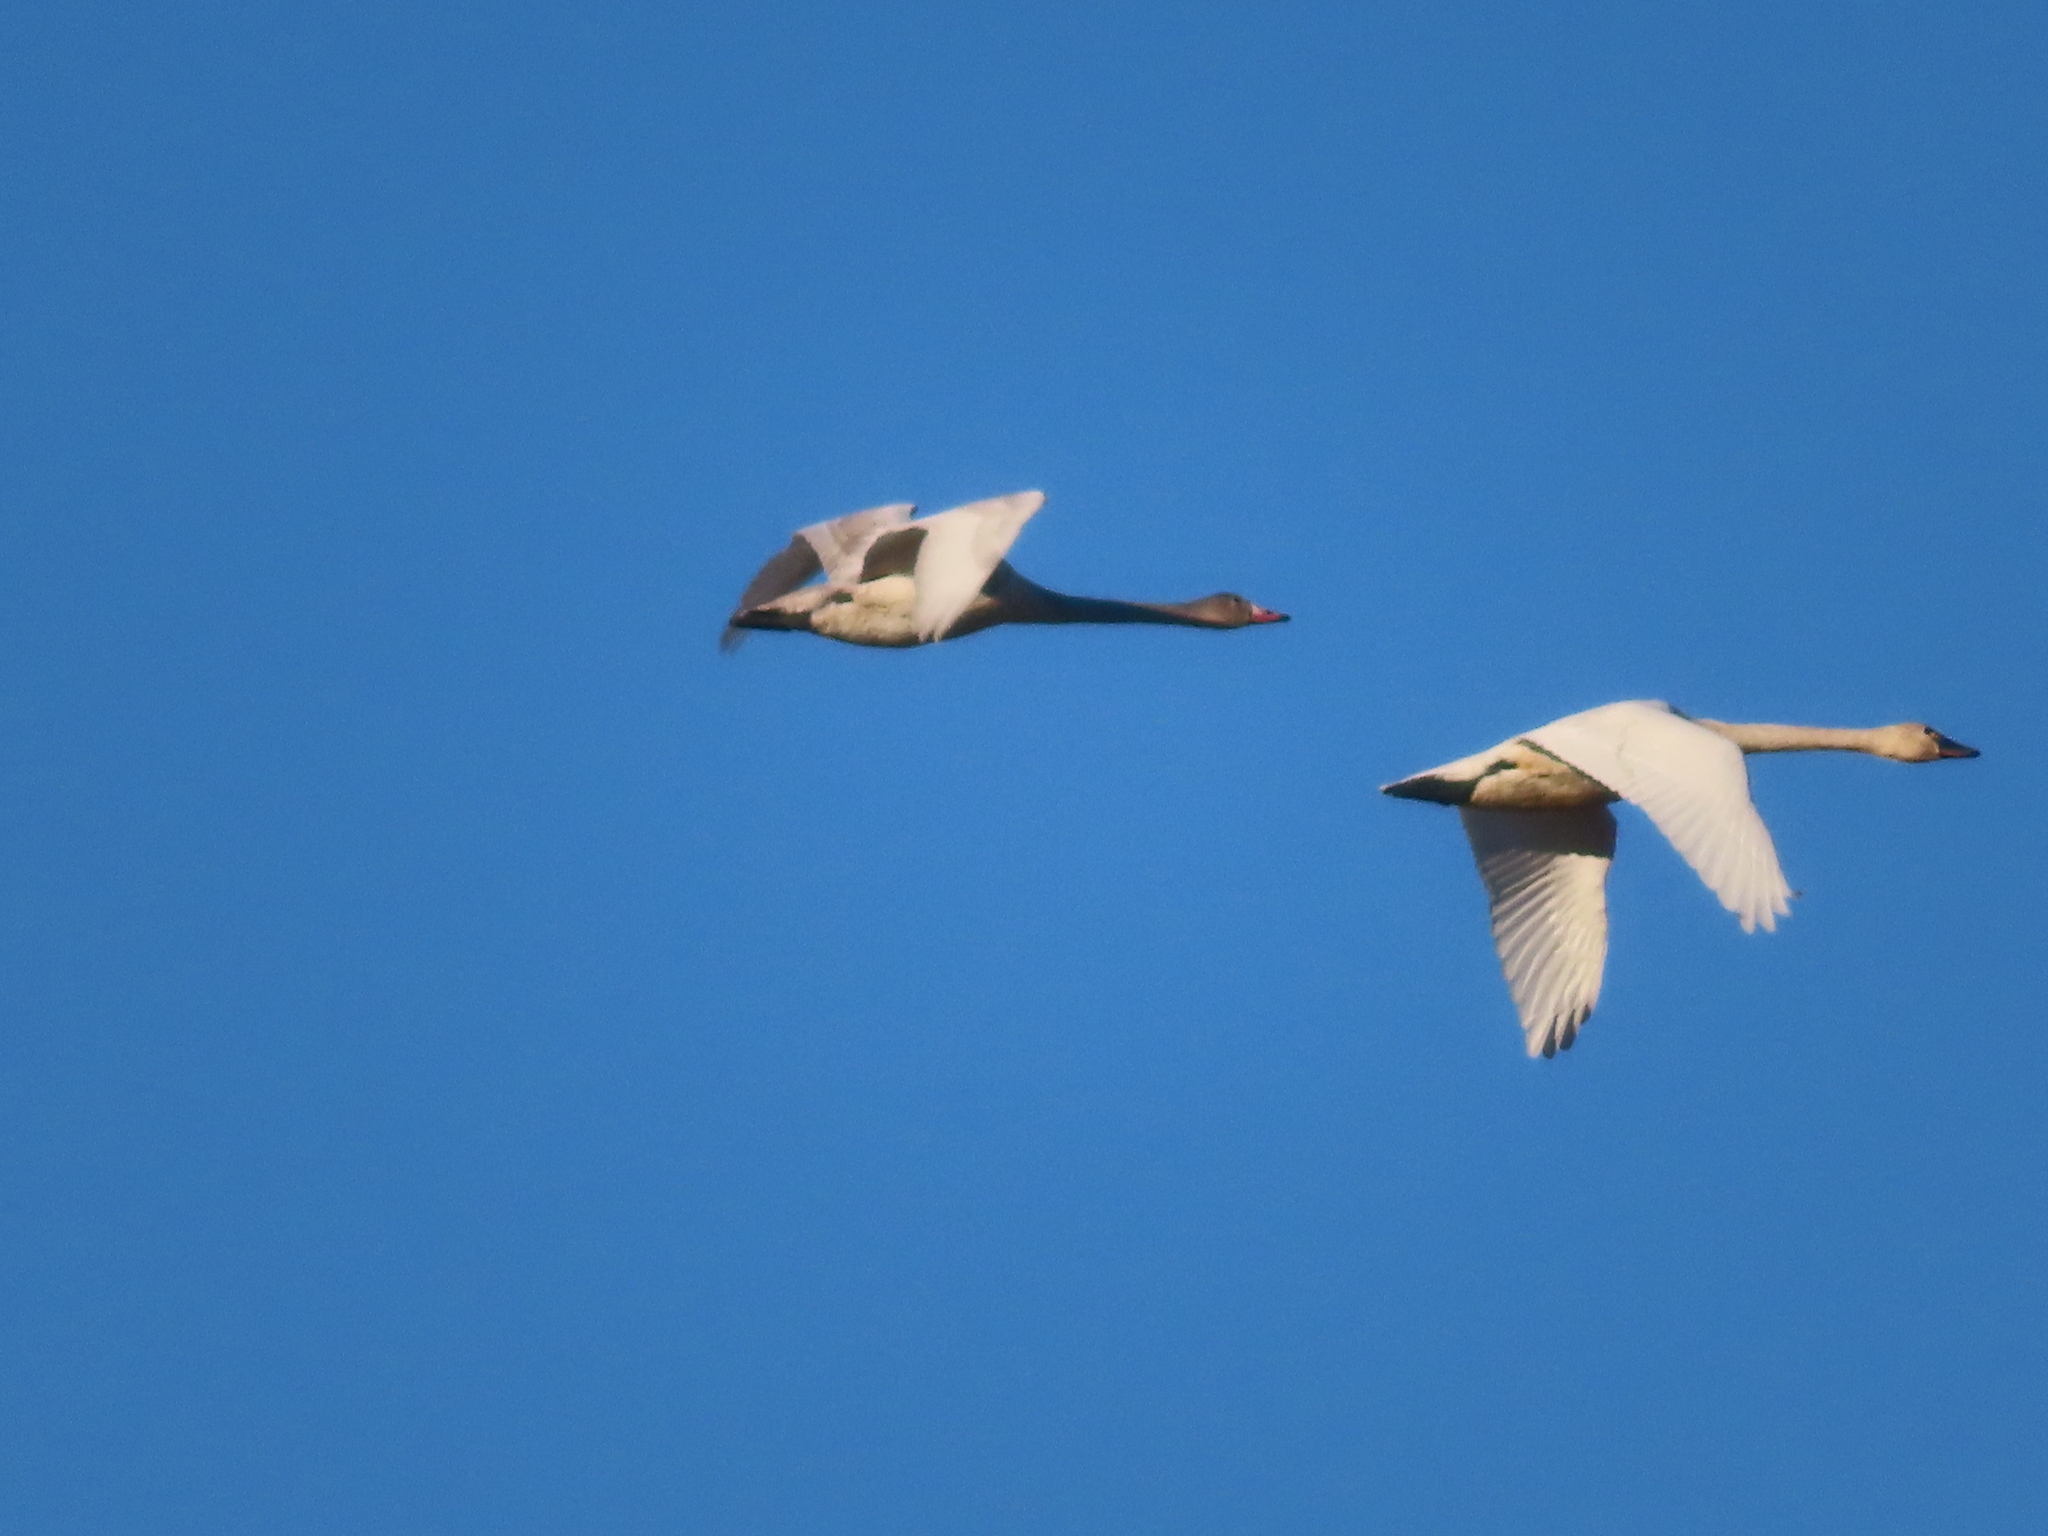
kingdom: Animalia
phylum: Chordata
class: Aves
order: Anseriformes
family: Anatidae
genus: Anser
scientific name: Anser caerulescens
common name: Snow goose
